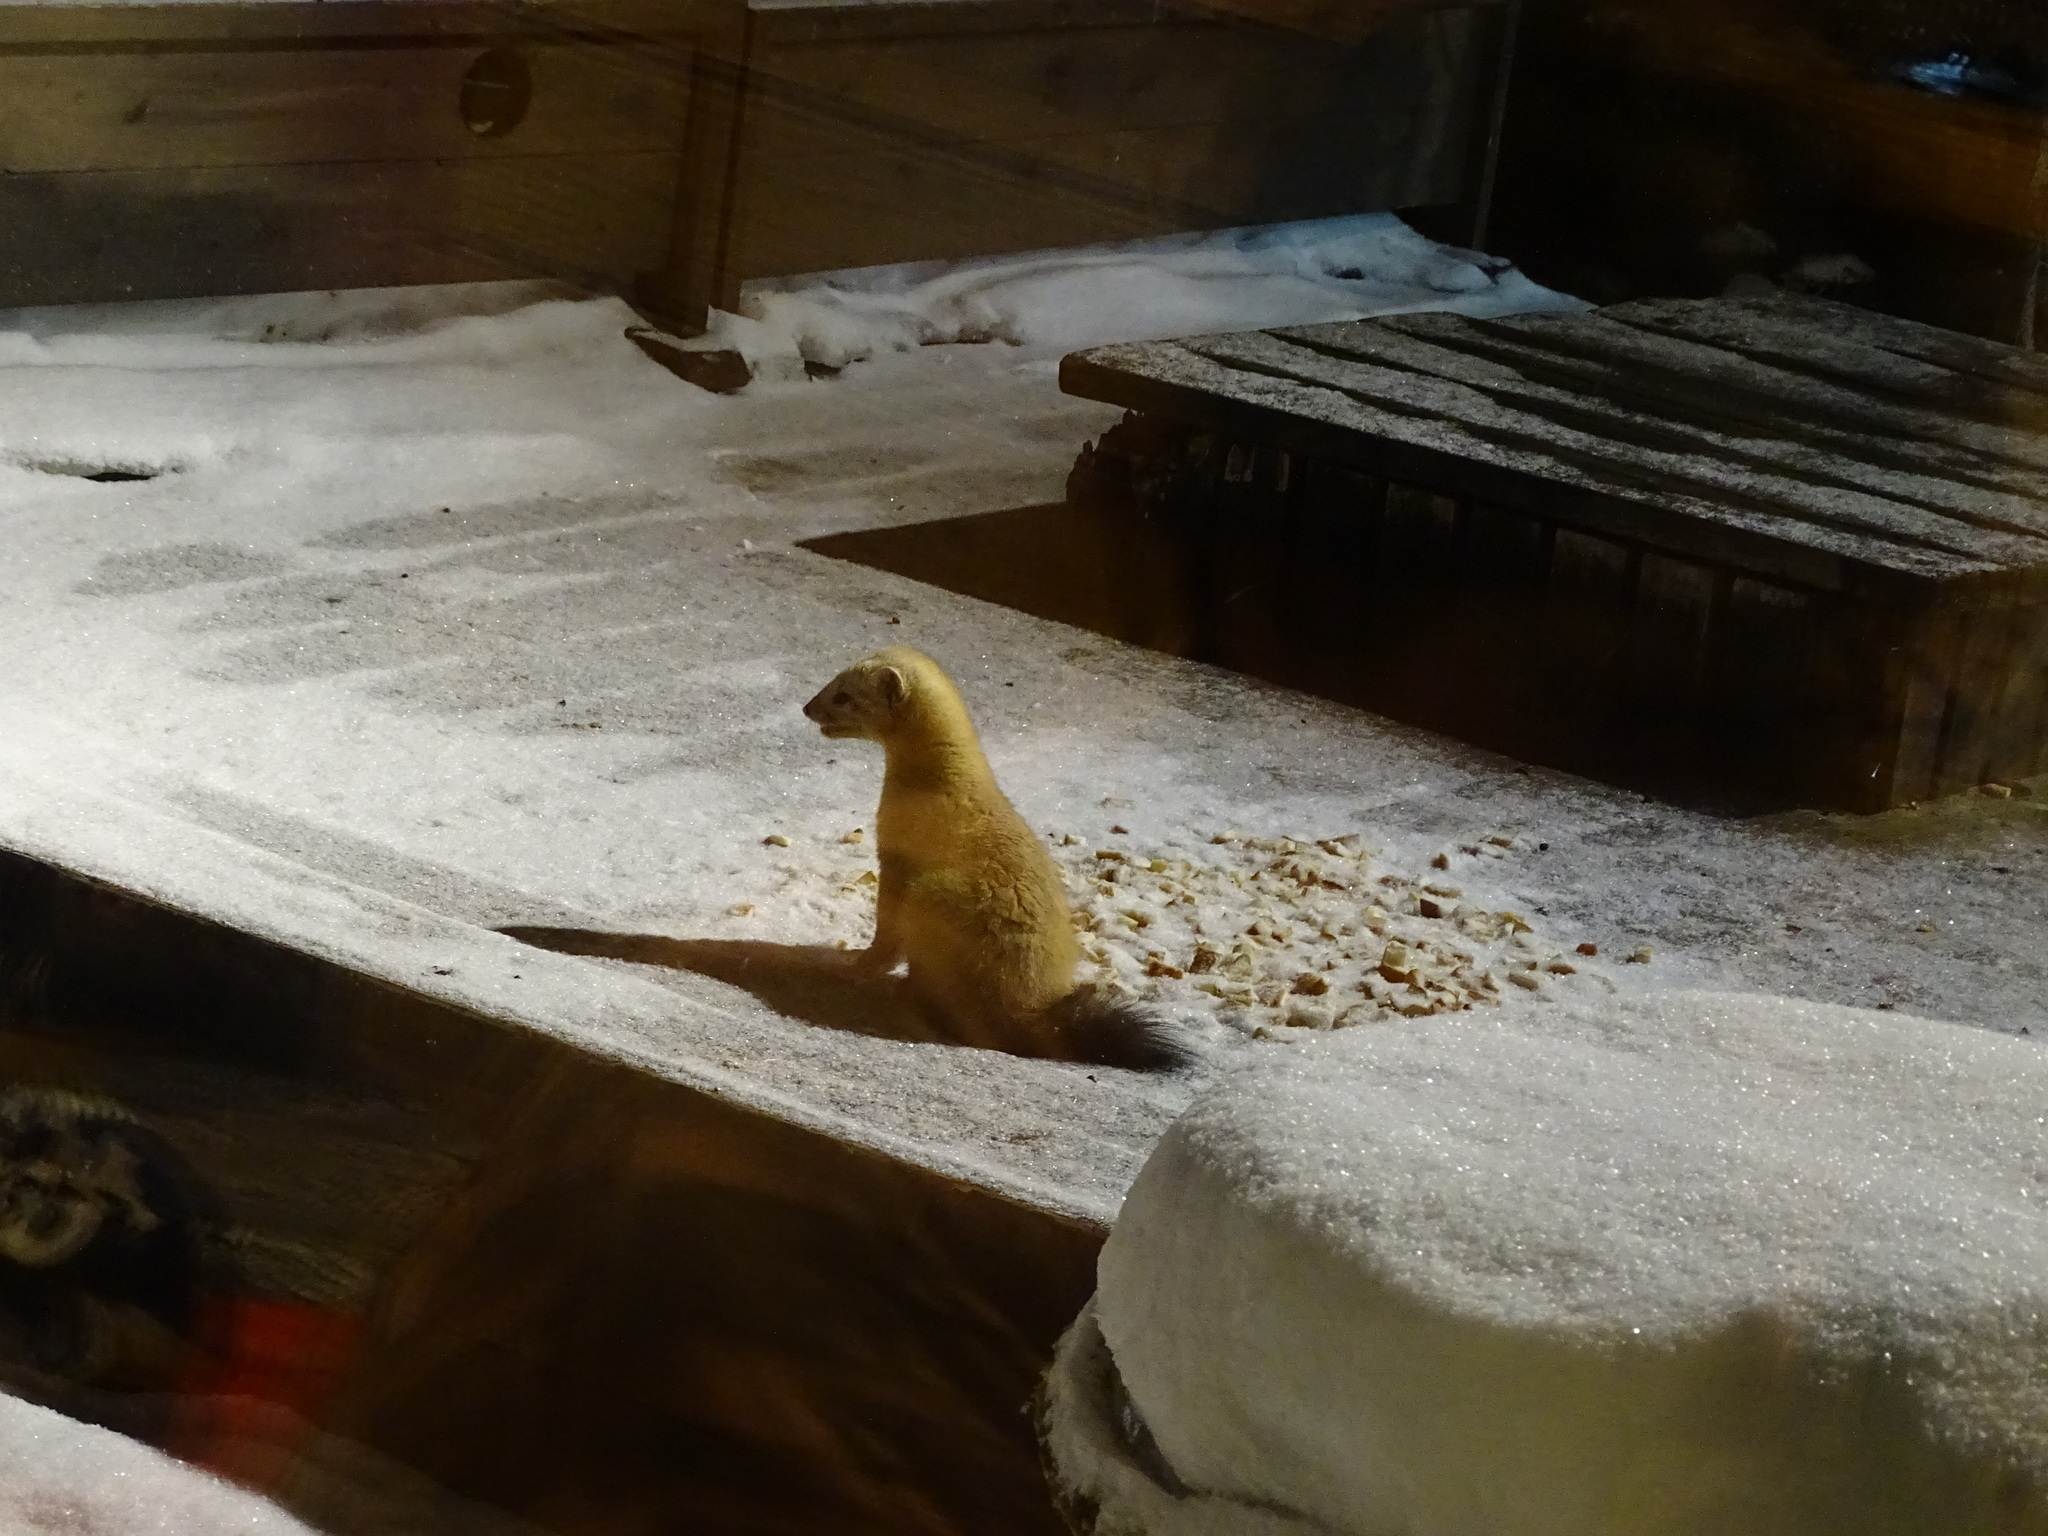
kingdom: Animalia
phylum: Chordata
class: Mammalia
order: Carnivora
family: Mustelidae
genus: Martes
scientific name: Martes zibellina
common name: Sable
